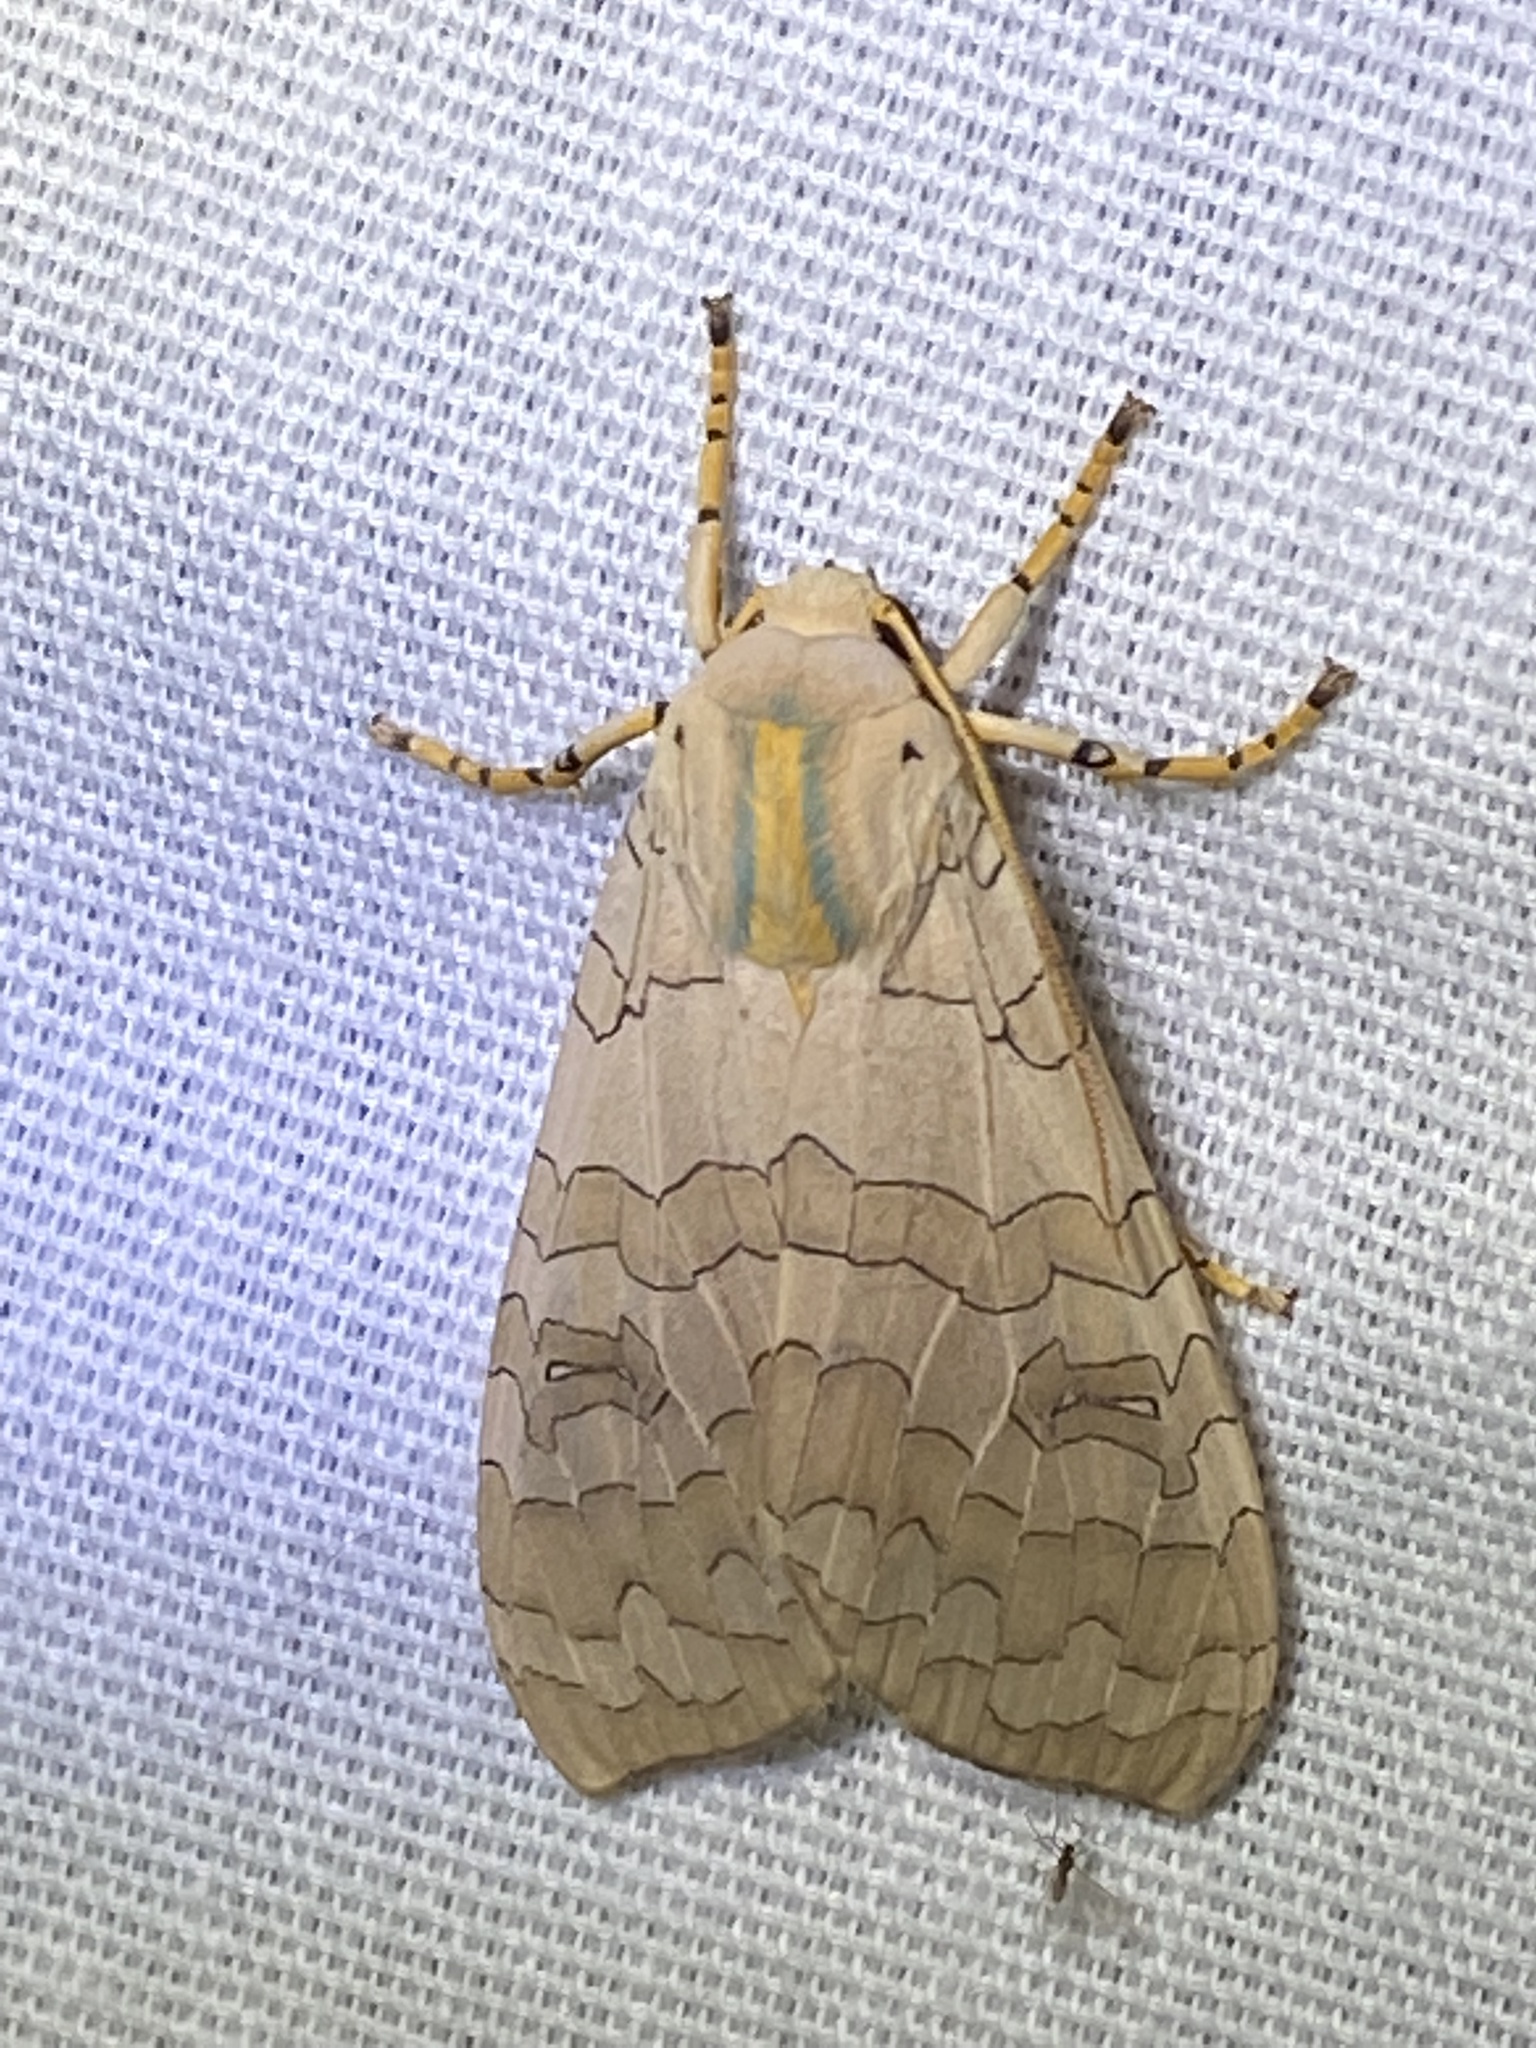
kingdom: Animalia
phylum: Arthropoda
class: Insecta
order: Lepidoptera
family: Erebidae
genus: Halysidota
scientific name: Halysidota
